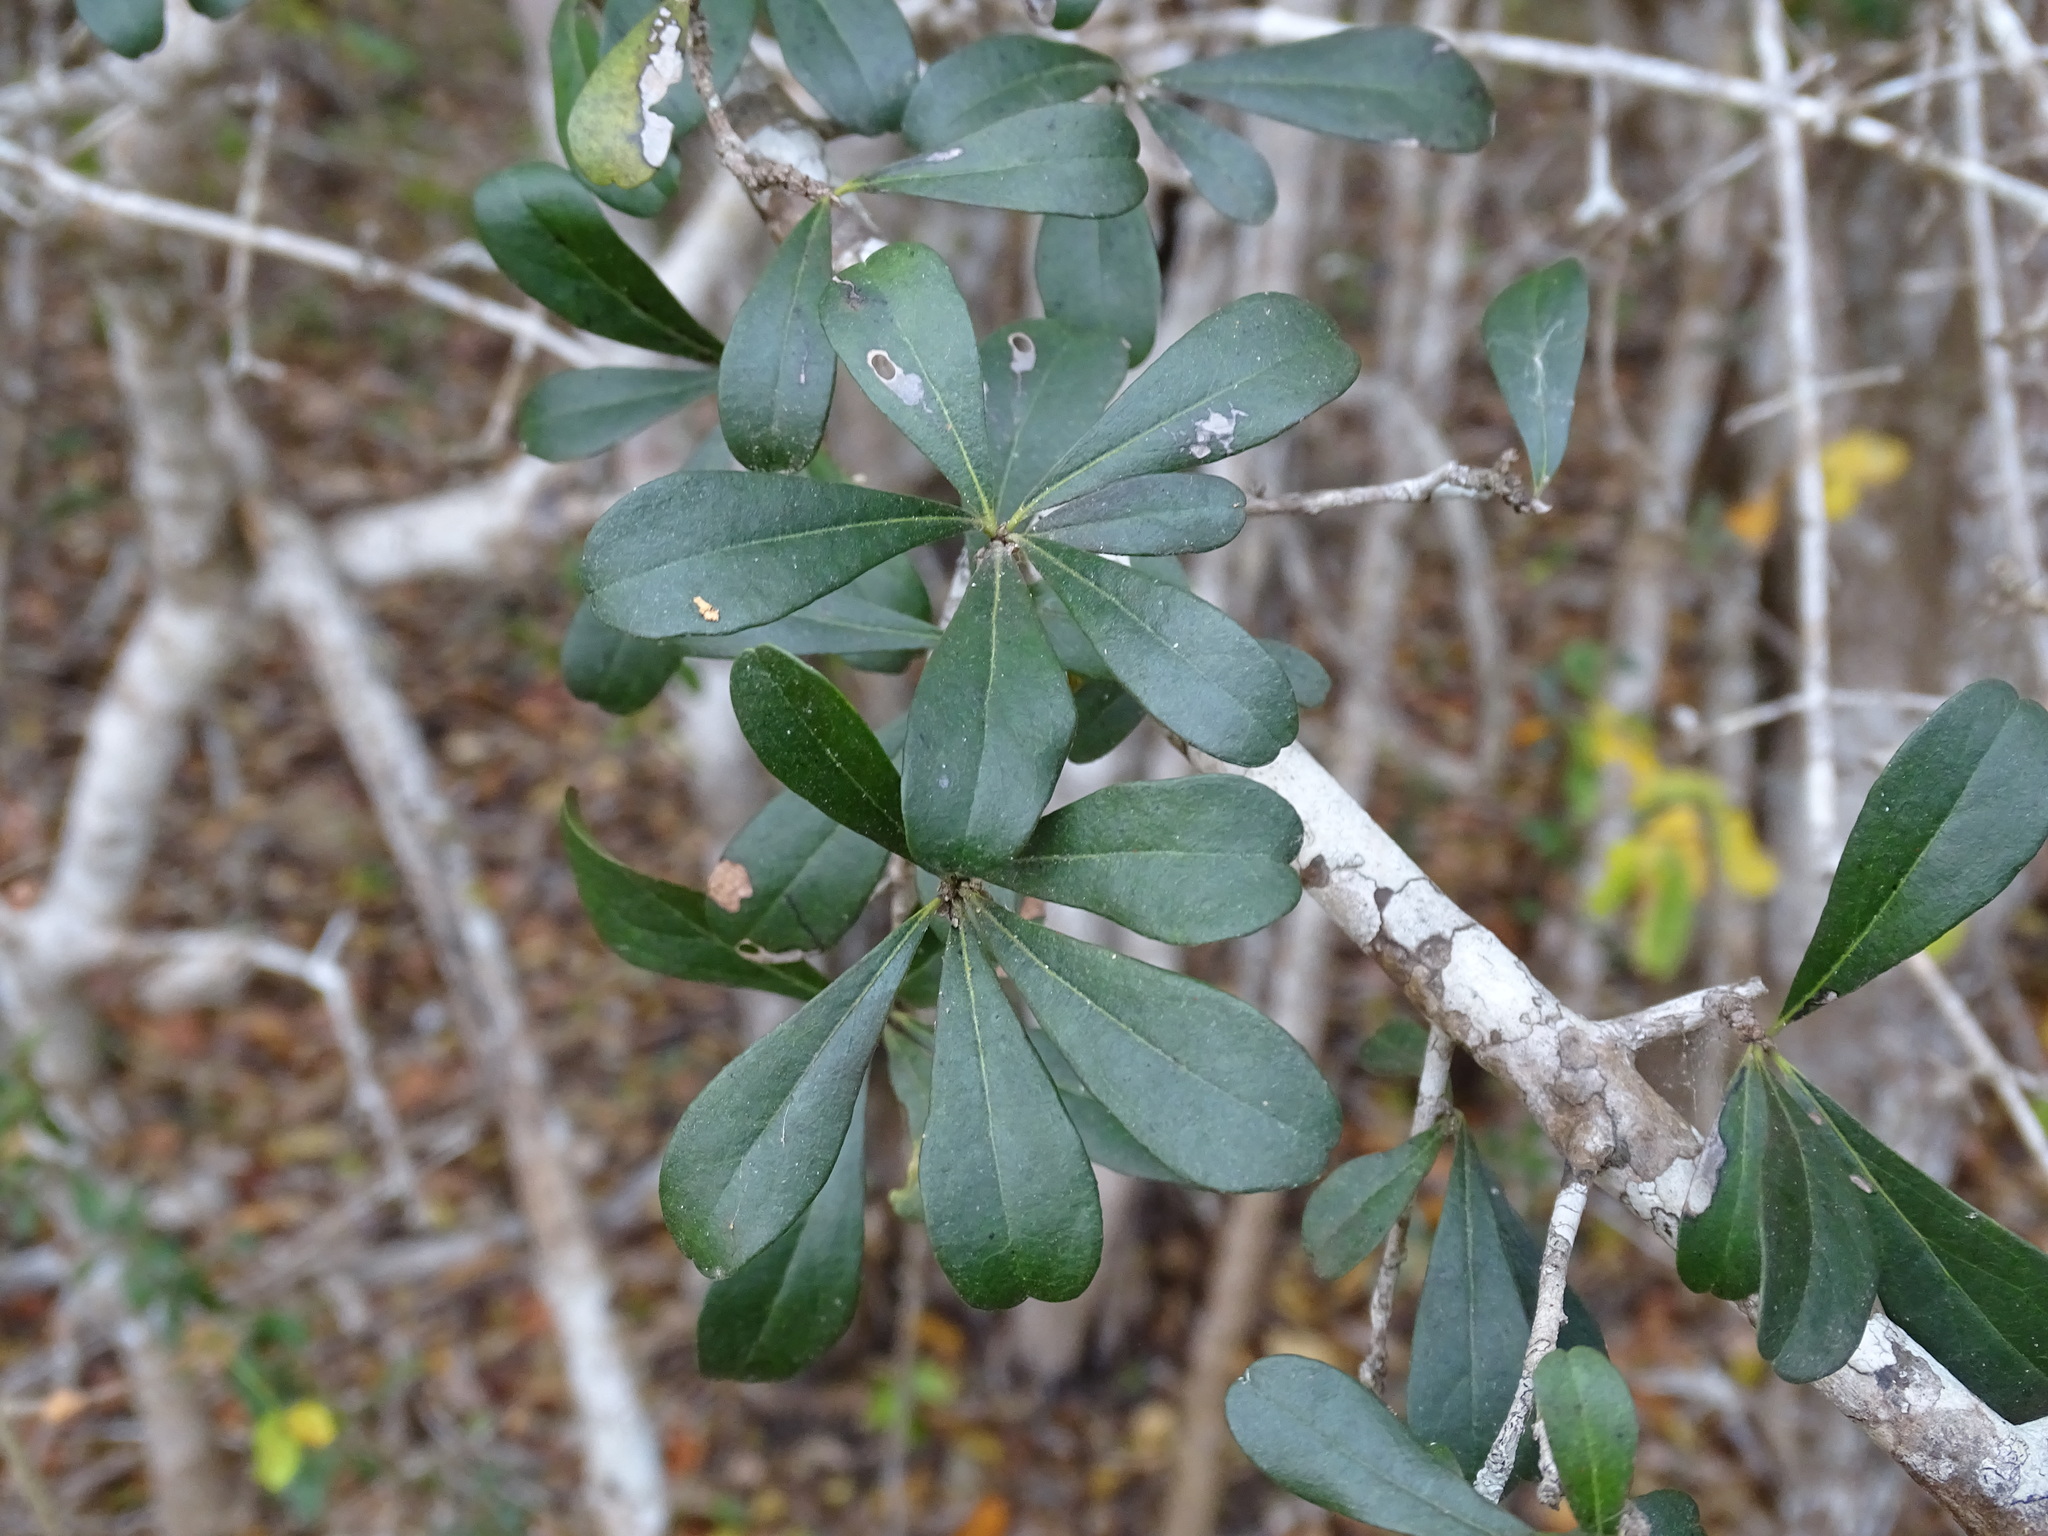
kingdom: Plantae
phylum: Tracheophyta
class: Magnoliopsida
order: Ericales
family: Ebenaceae
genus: Diospyros
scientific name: Diospyros bumelioides
